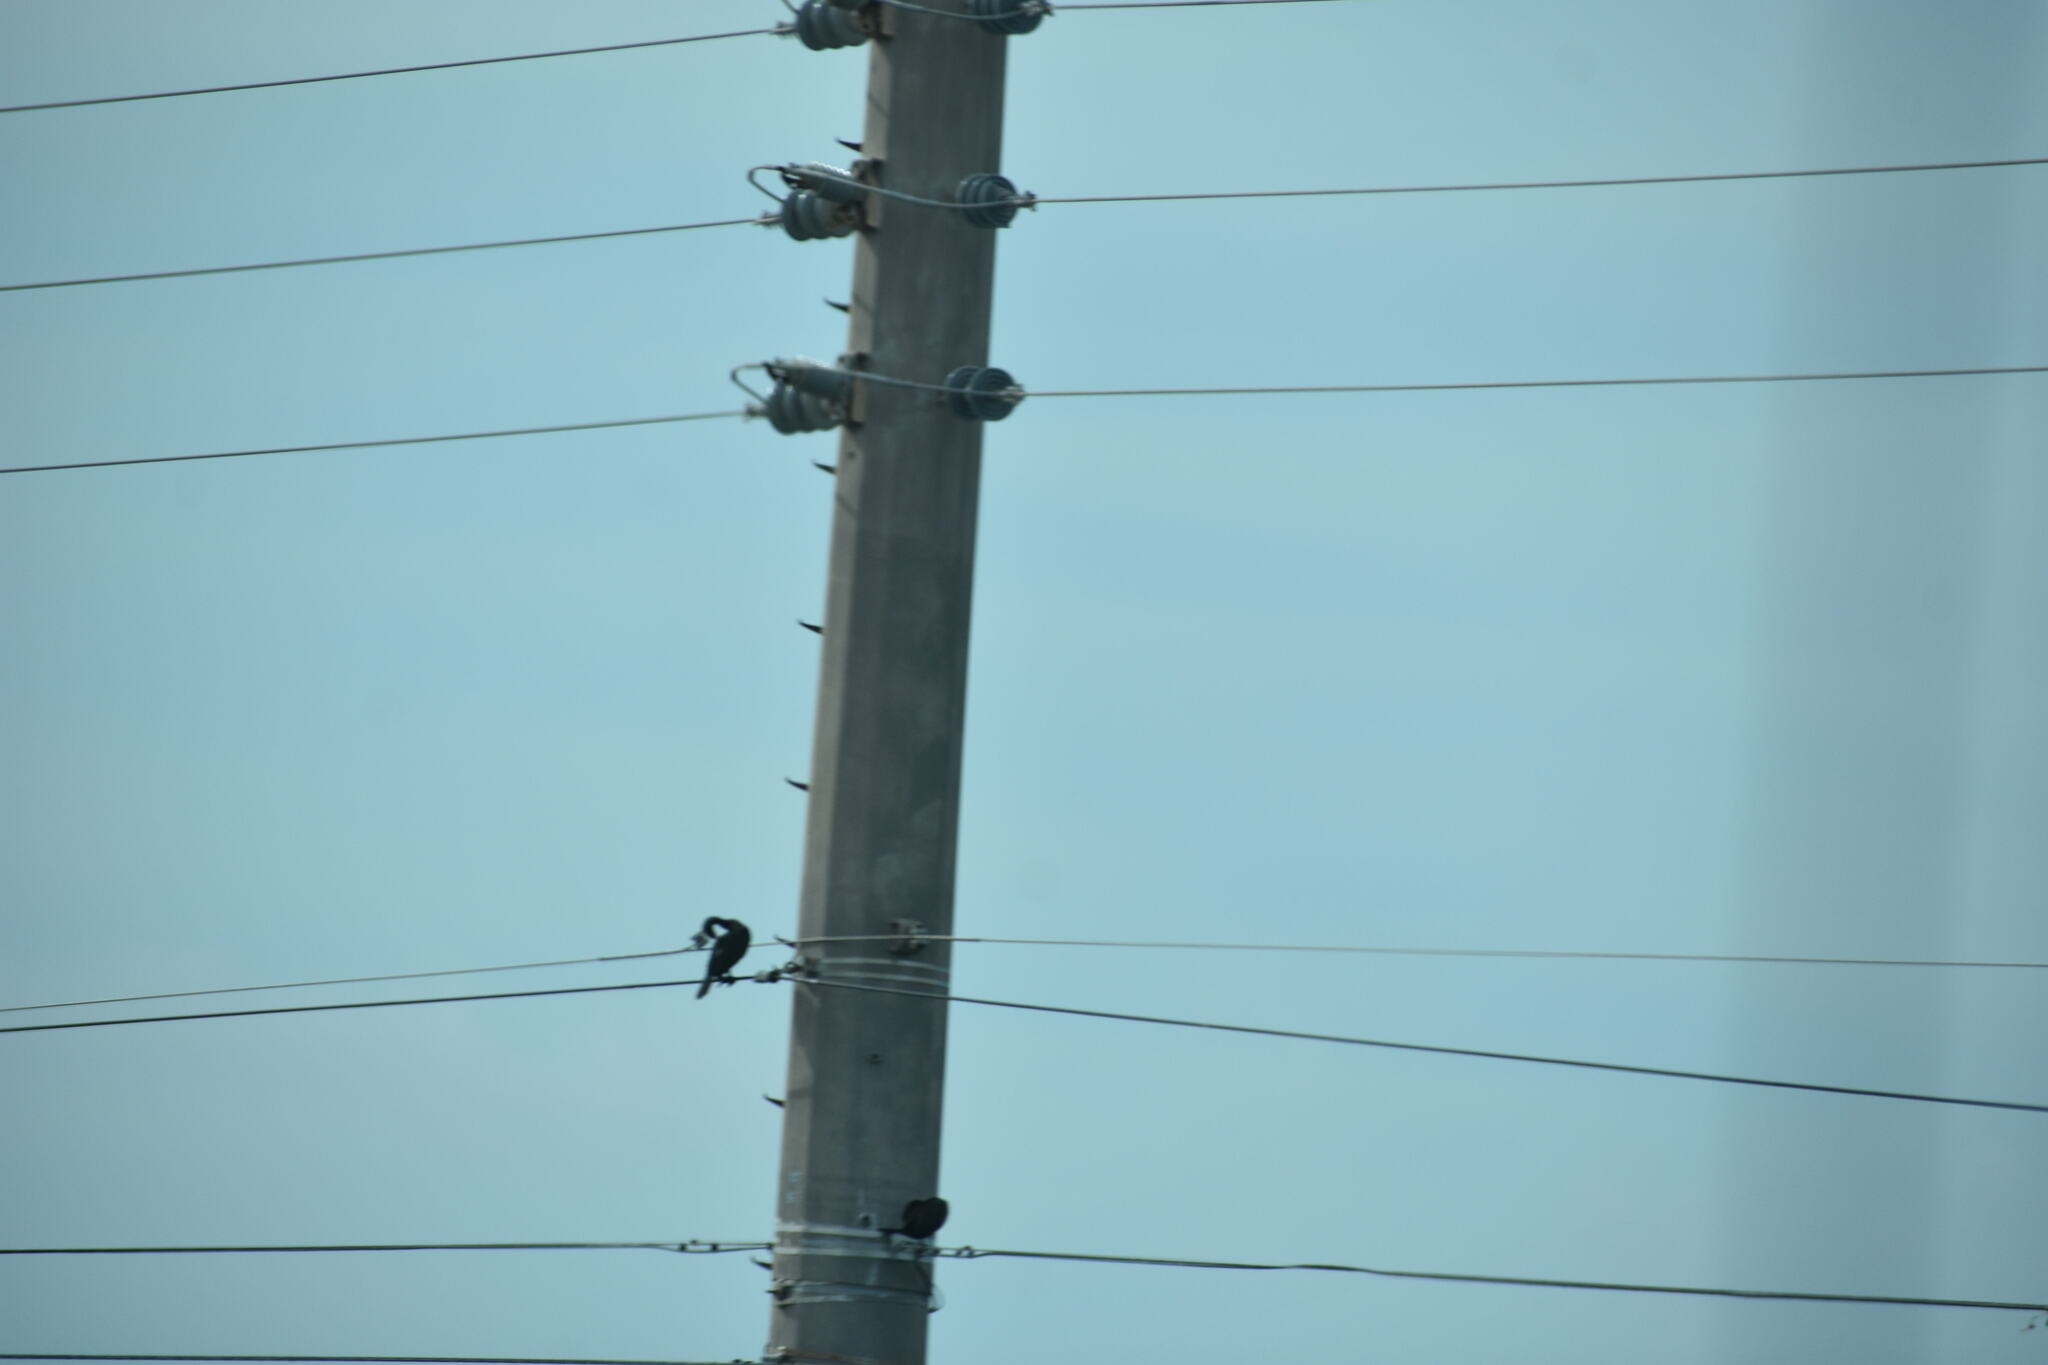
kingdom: Animalia
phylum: Chordata
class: Aves
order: Suliformes
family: Phalacrocoracidae
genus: Phalacrocorax
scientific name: Phalacrocorax auritus
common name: Double-crested cormorant
